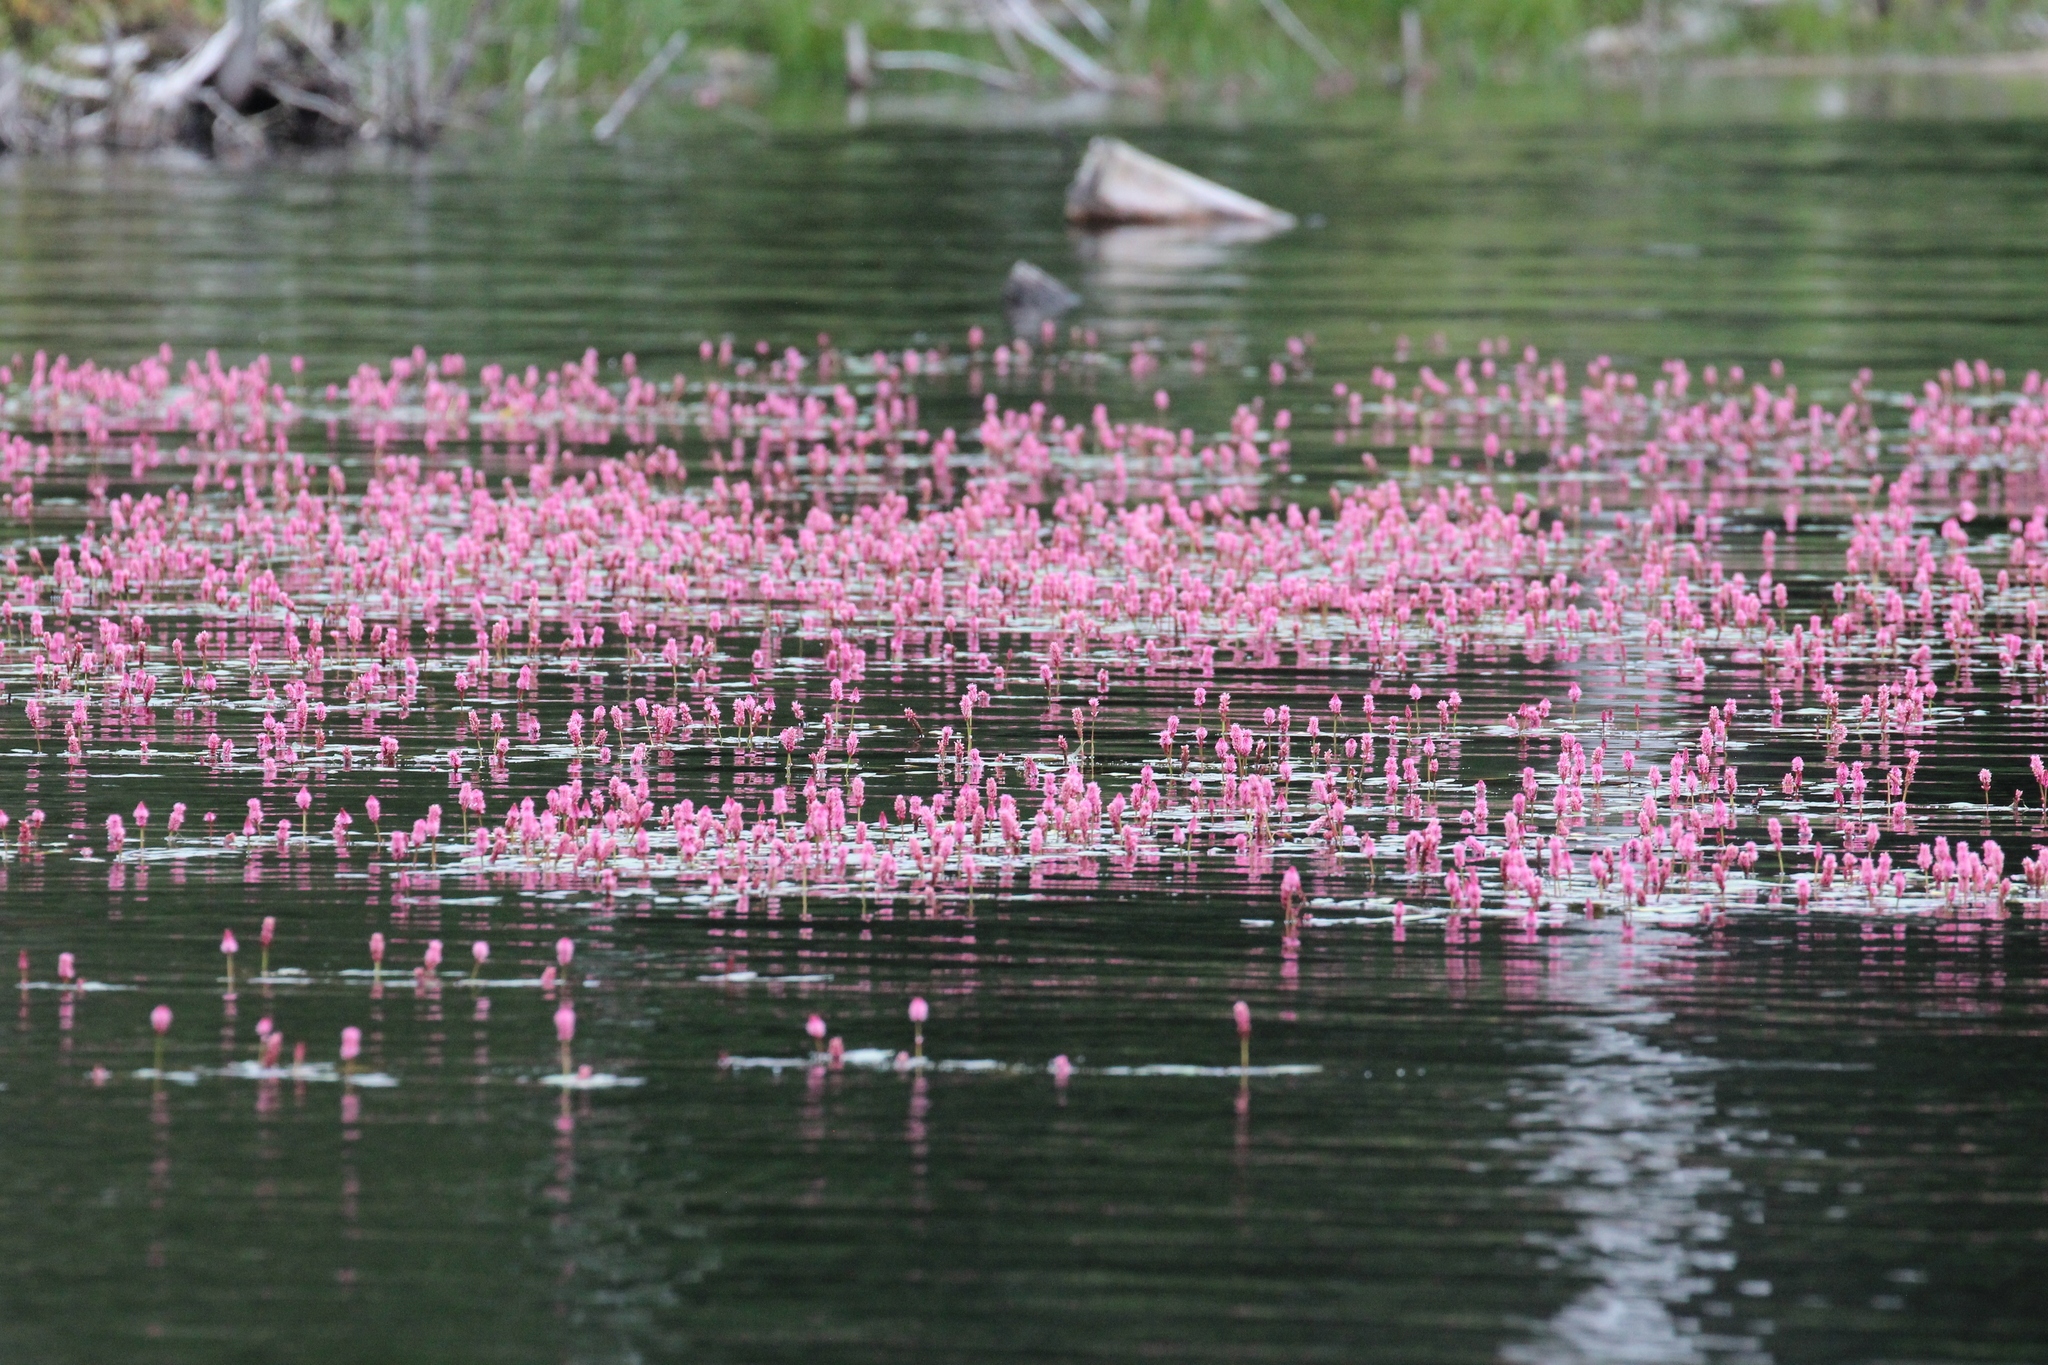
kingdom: Plantae
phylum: Tracheophyta
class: Magnoliopsida
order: Caryophyllales
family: Polygonaceae
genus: Persicaria
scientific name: Persicaria amphibia
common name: Amphibious bistort
